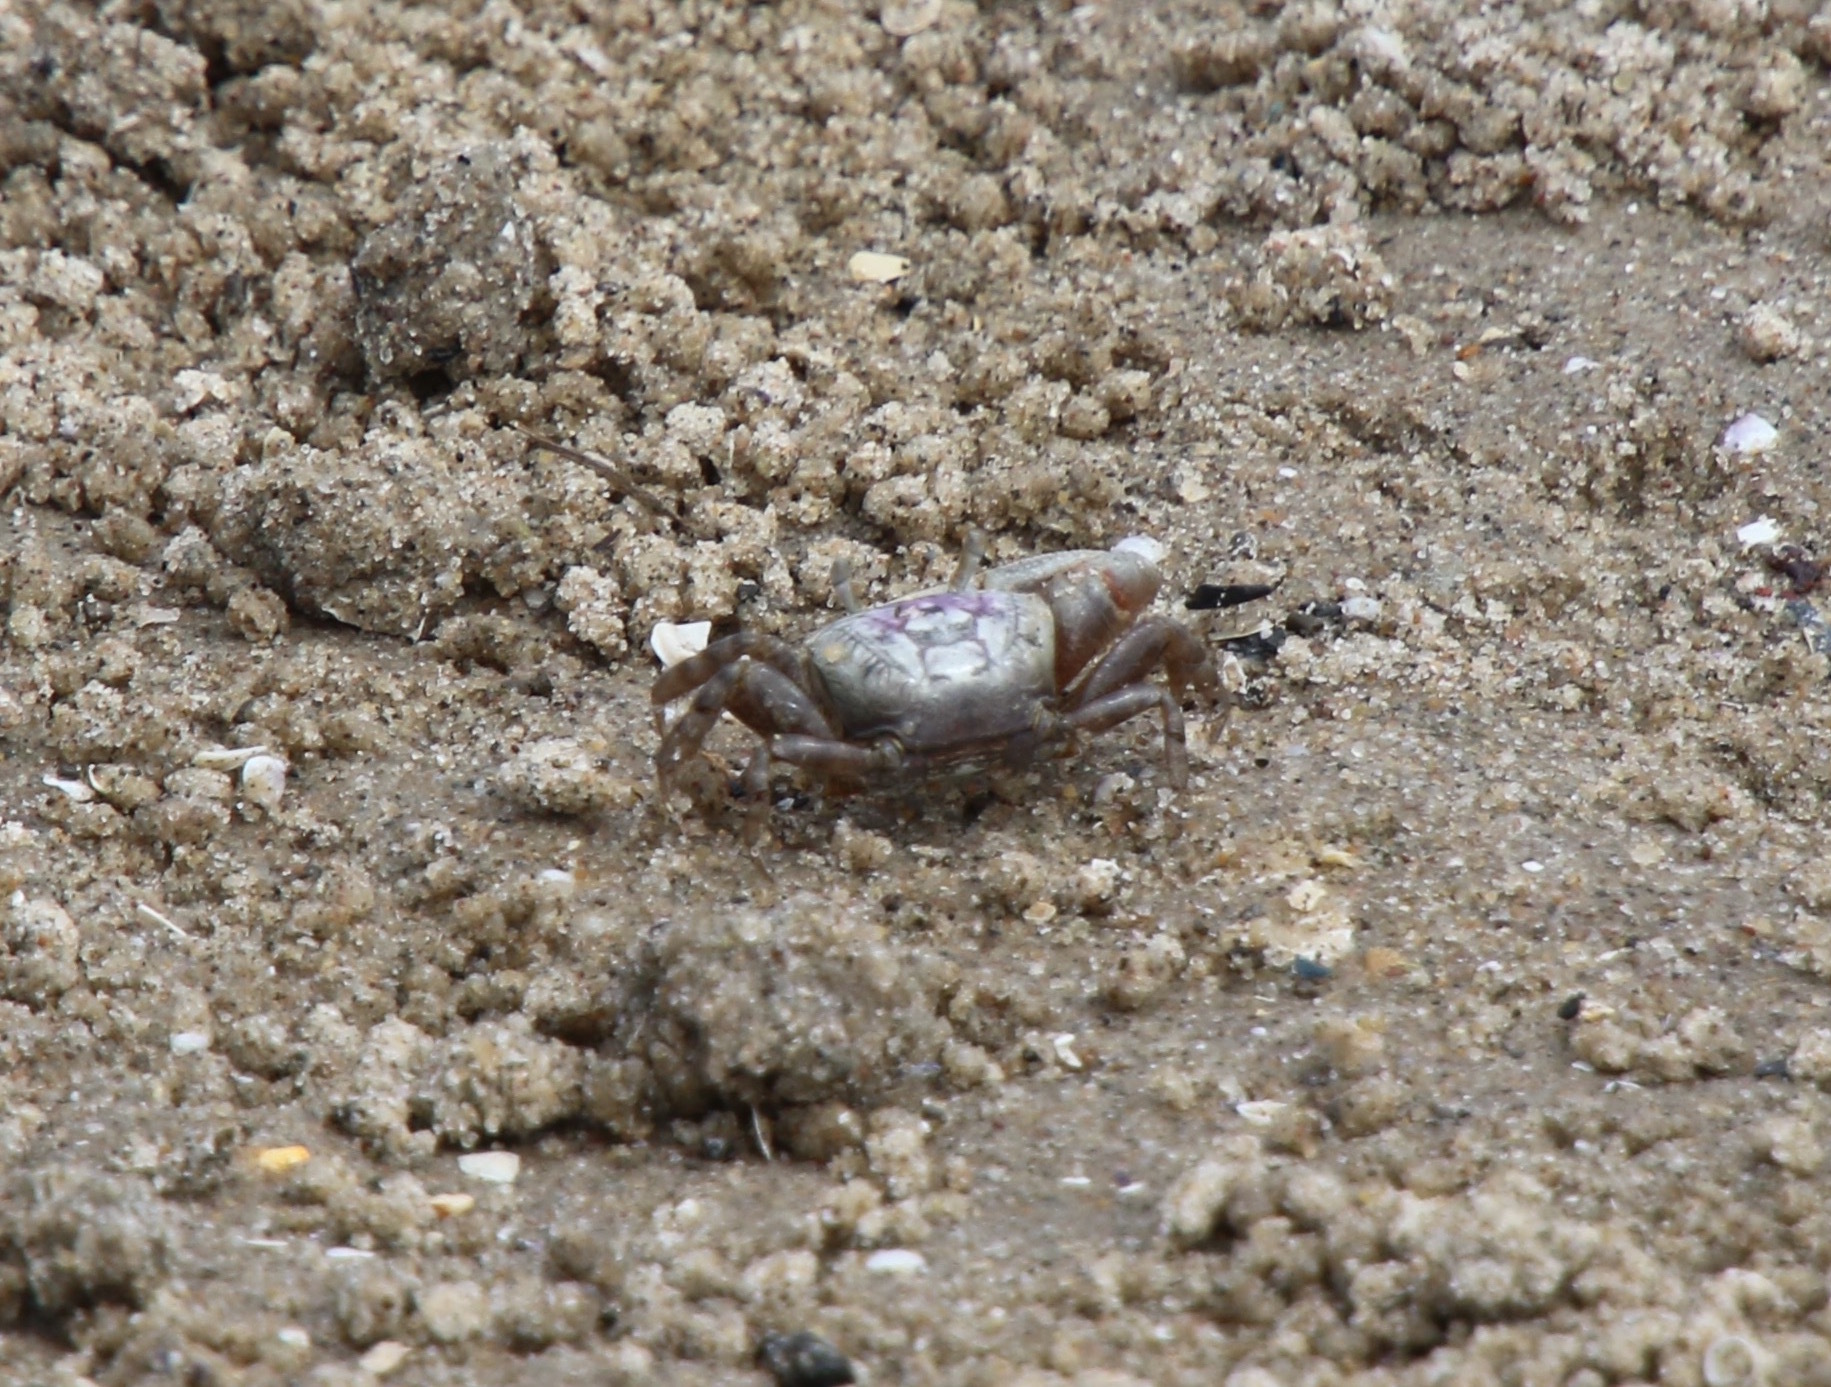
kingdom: Animalia
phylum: Arthropoda
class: Malacostraca
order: Decapoda
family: Ocypodidae
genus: Leptuca
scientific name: Leptuca pugilator
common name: Atlantic sand fiddler crab
